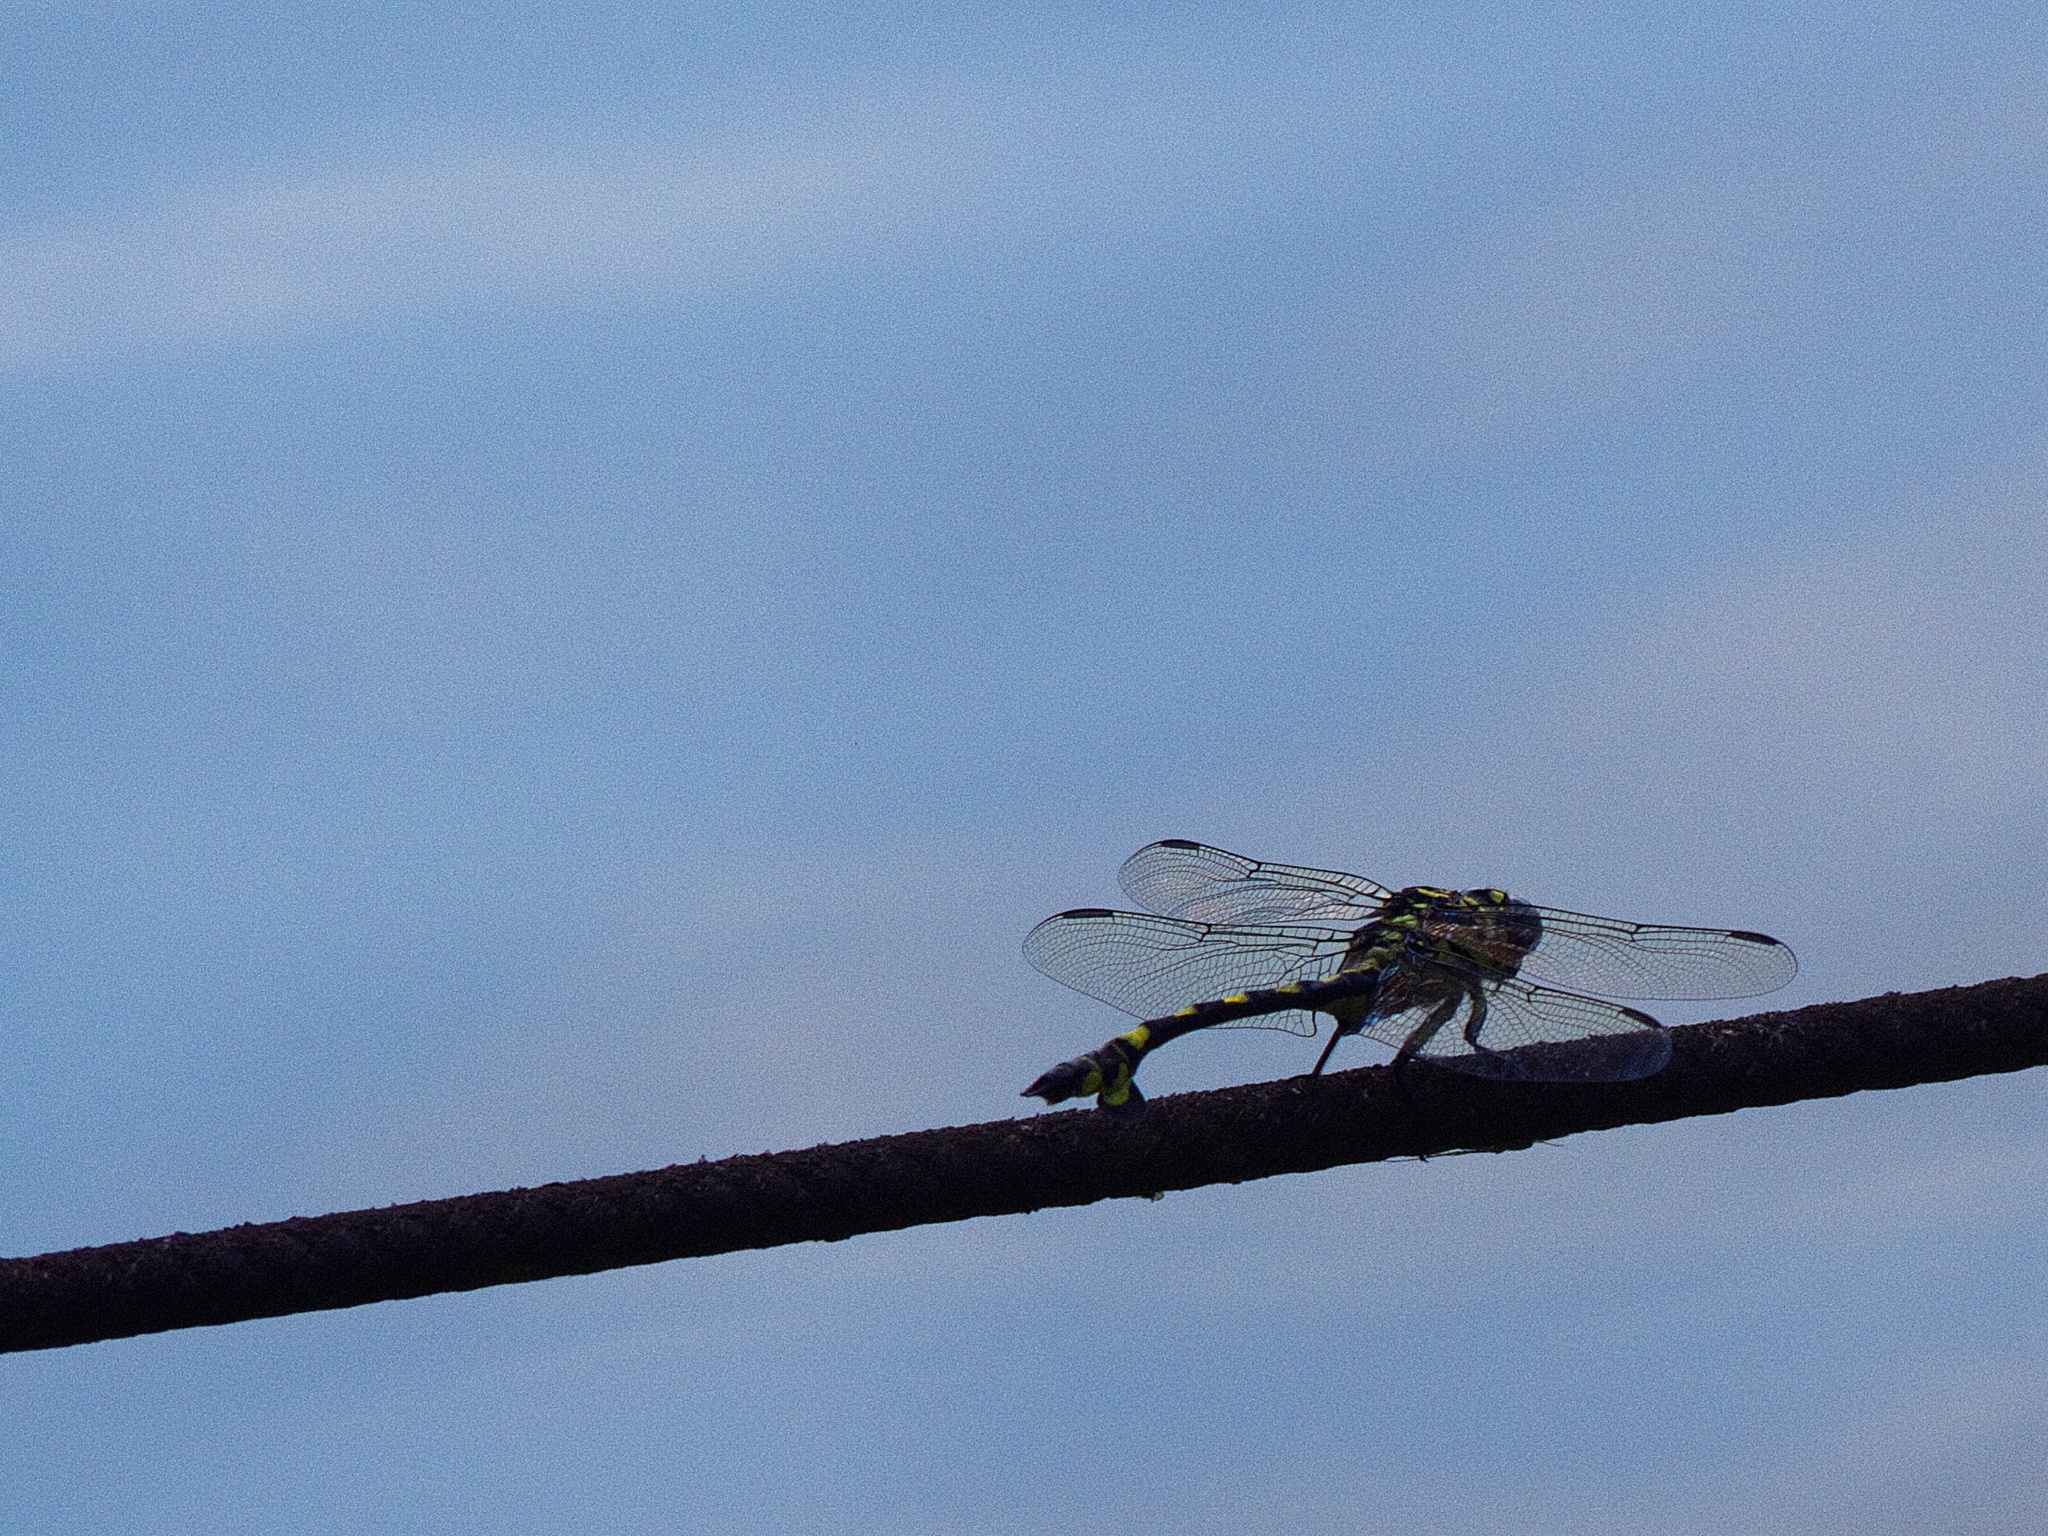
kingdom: Animalia
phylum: Arthropoda
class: Insecta
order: Odonata
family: Gomphidae
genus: Sinictinogomphus
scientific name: Sinictinogomphus clavatus
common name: Golden flangetail
